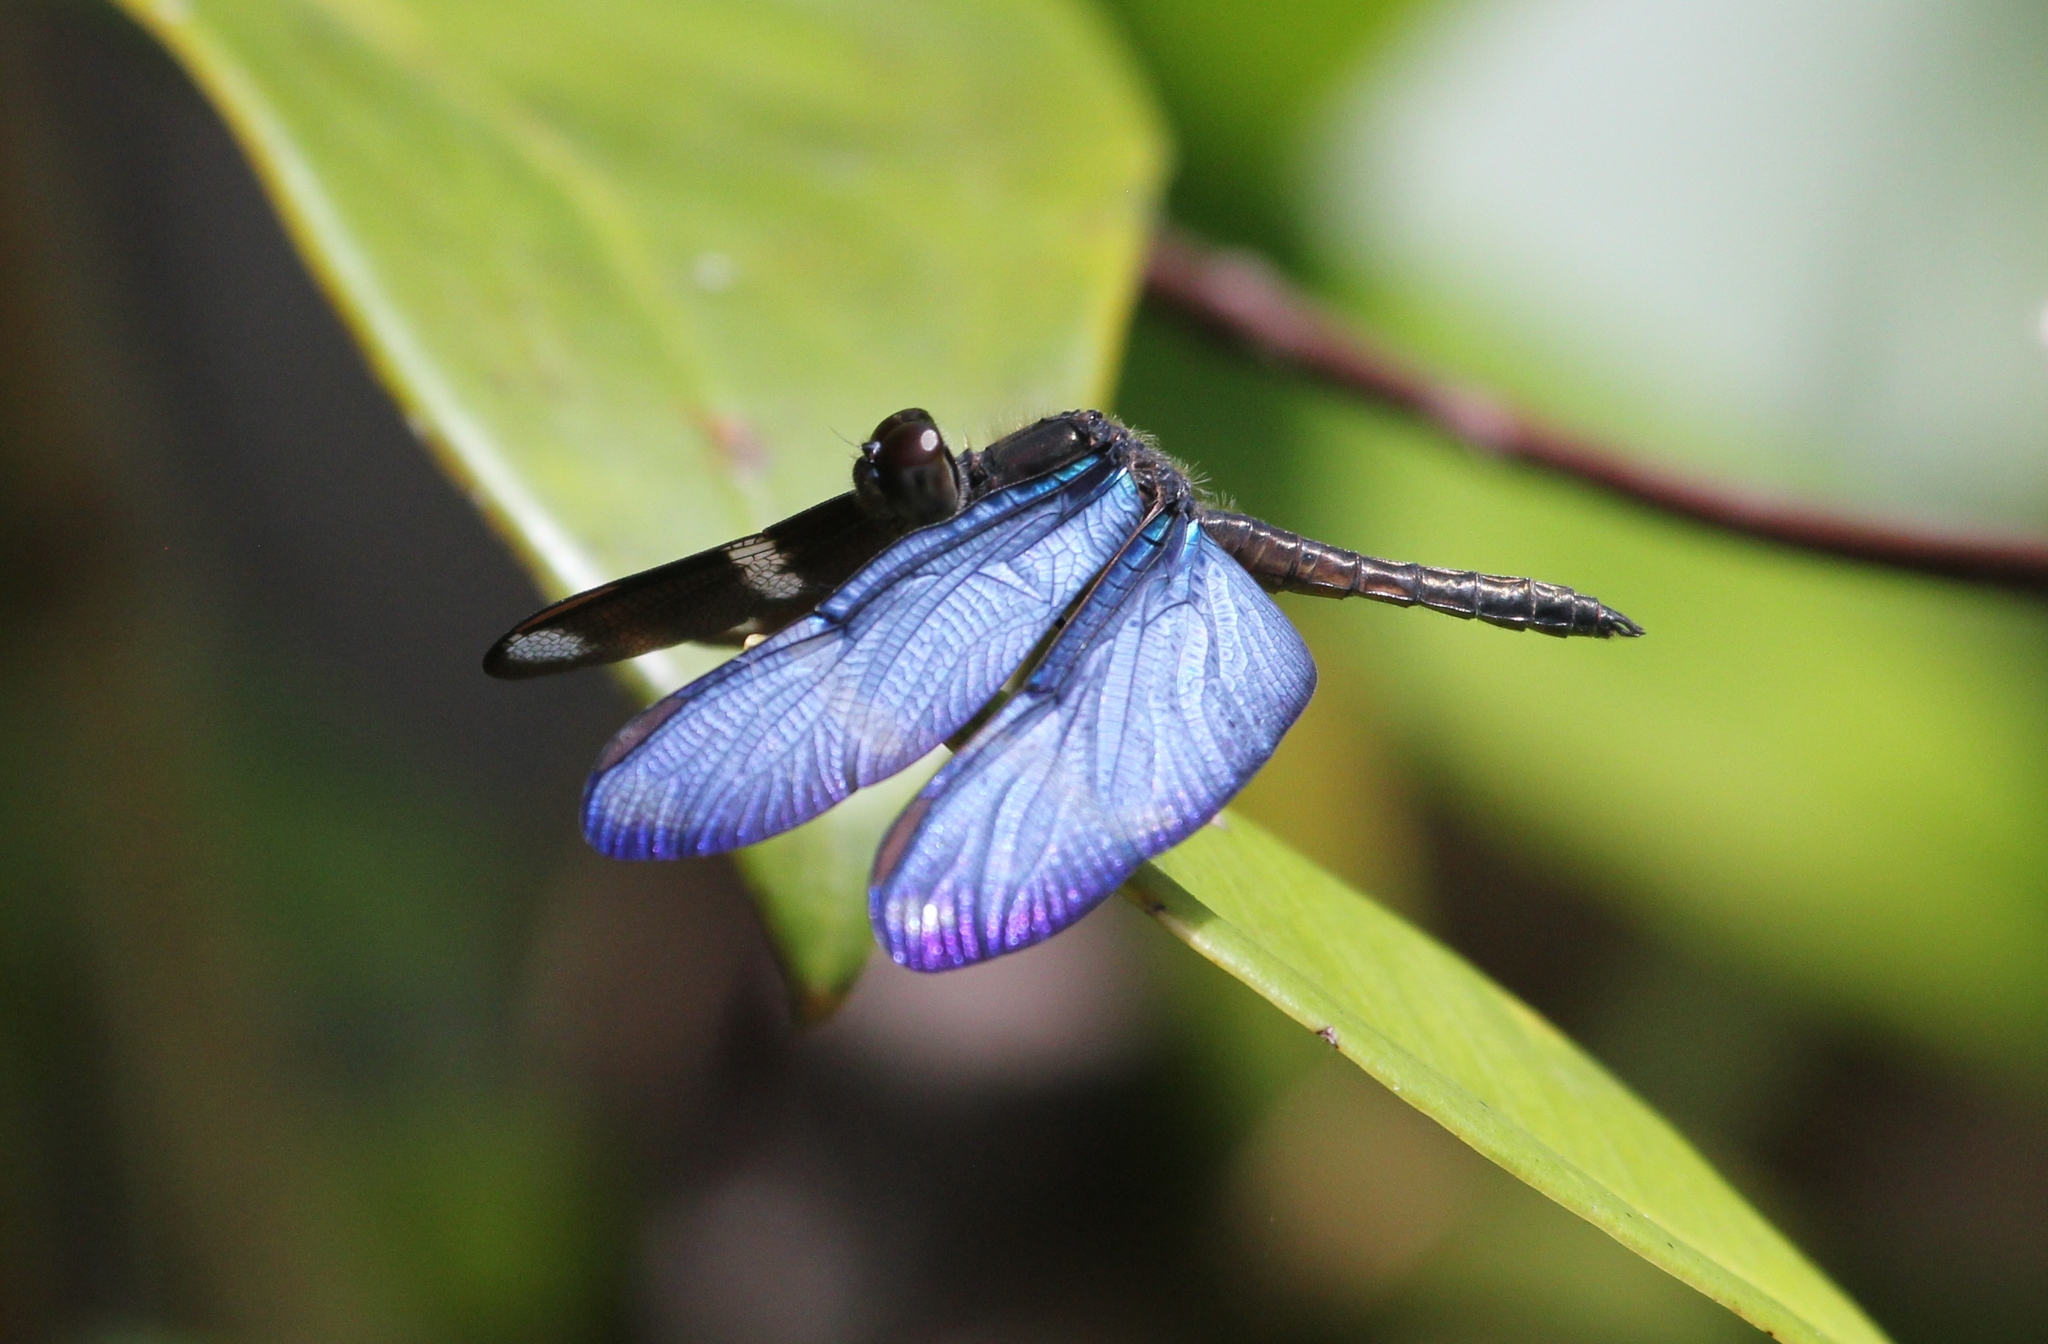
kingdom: Animalia
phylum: Arthropoda
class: Insecta
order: Odonata
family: Libellulidae
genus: Zenithoptera
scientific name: Zenithoptera lanei
